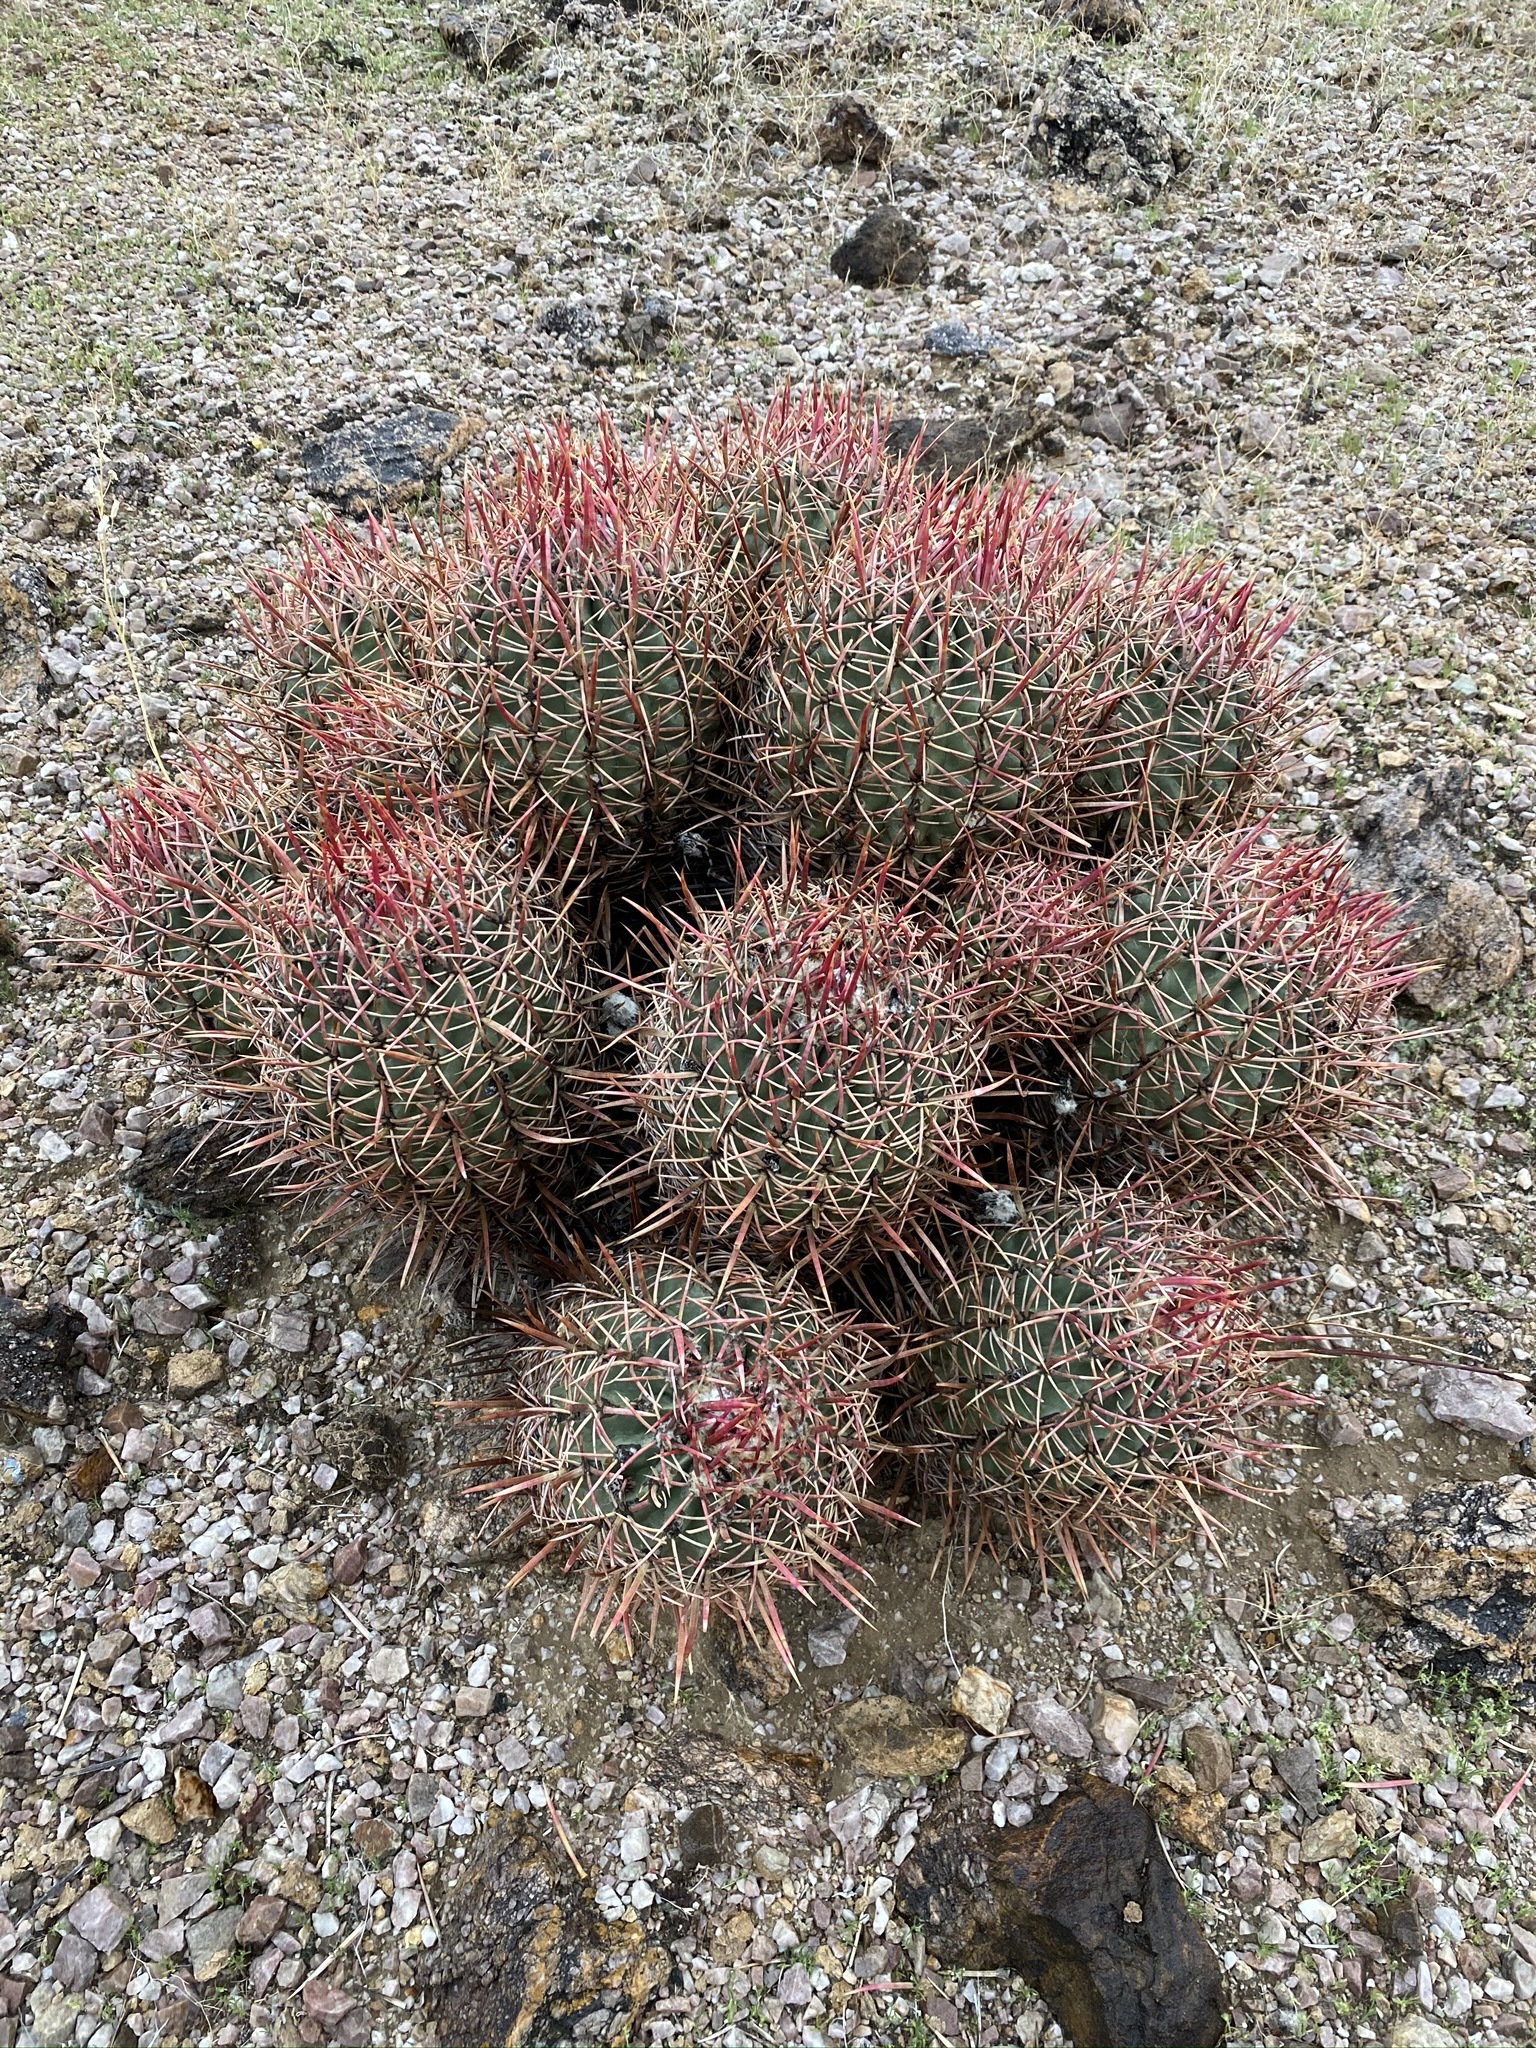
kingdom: Plantae
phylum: Tracheophyta
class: Magnoliopsida
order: Caryophyllales
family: Cactaceae
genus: Echinocactus
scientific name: Echinocactus polycephalus
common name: Cottontop cactus
